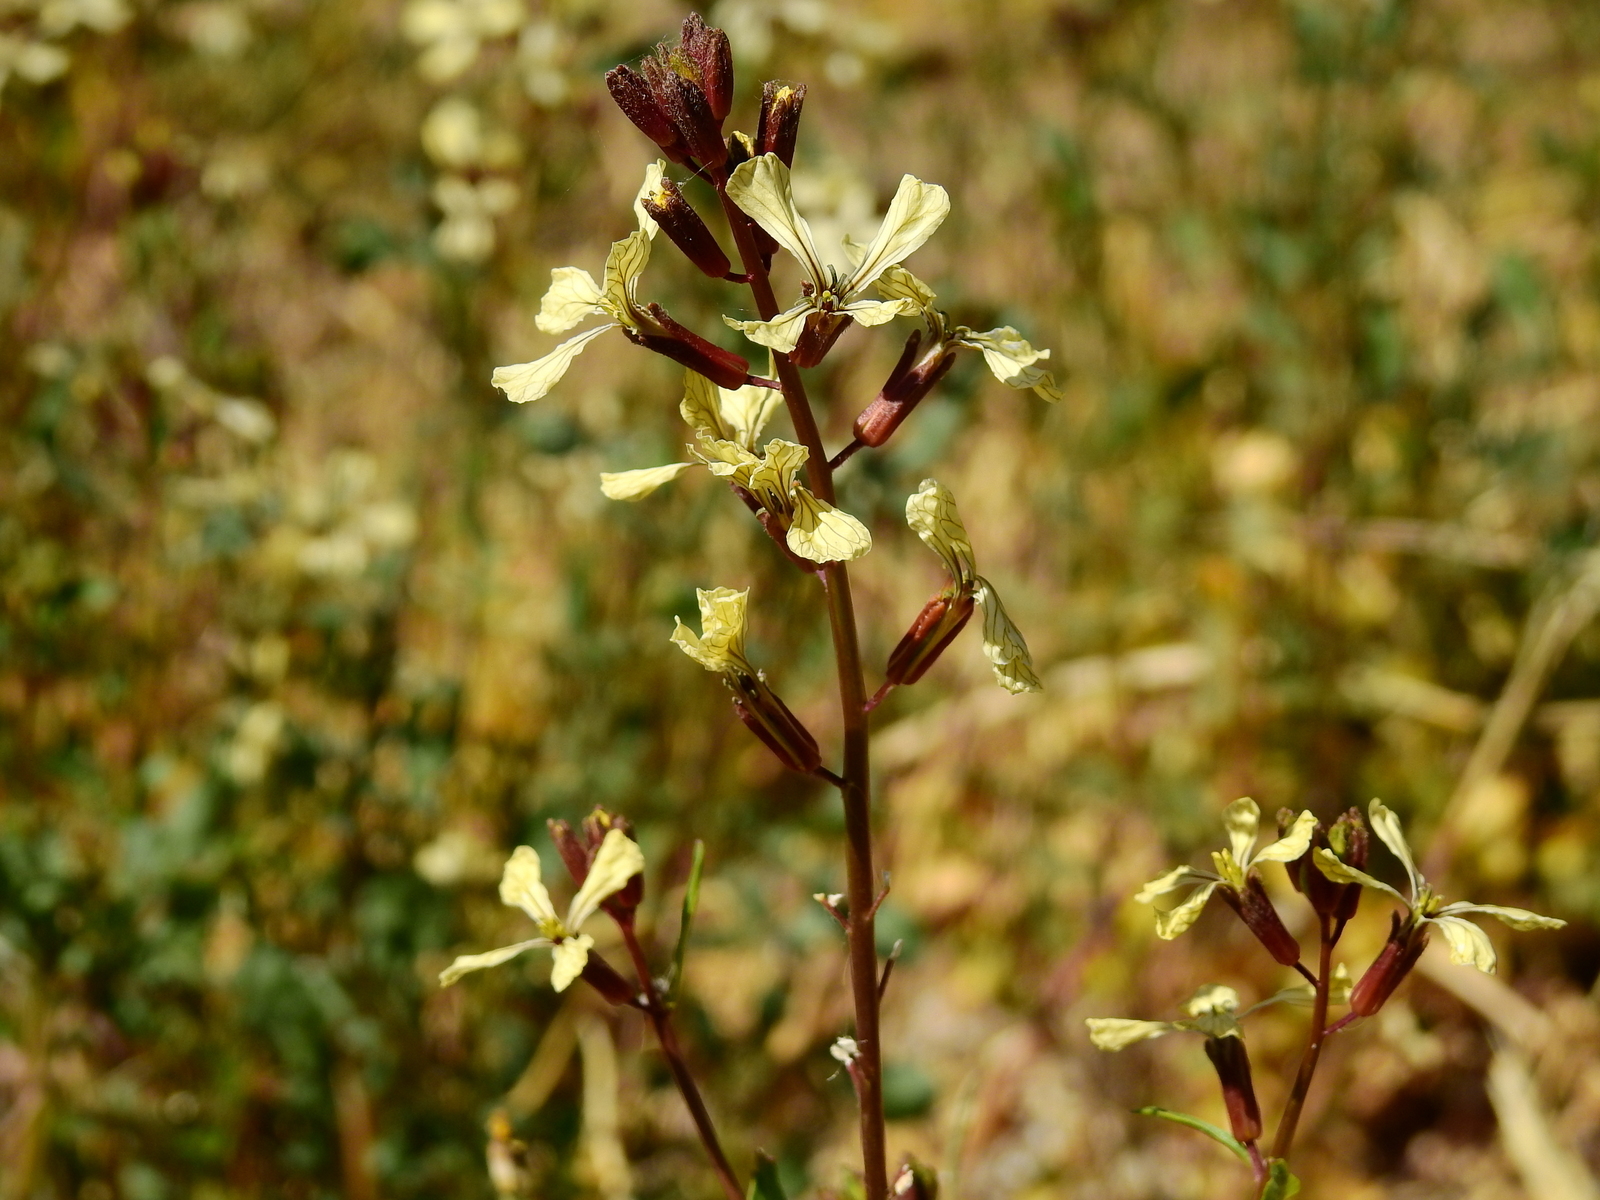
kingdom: Plantae
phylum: Tracheophyta
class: Magnoliopsida
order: Brassicales
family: Brassicaceae
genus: Eruca
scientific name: Eruca vesicaria
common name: Garden rocket
